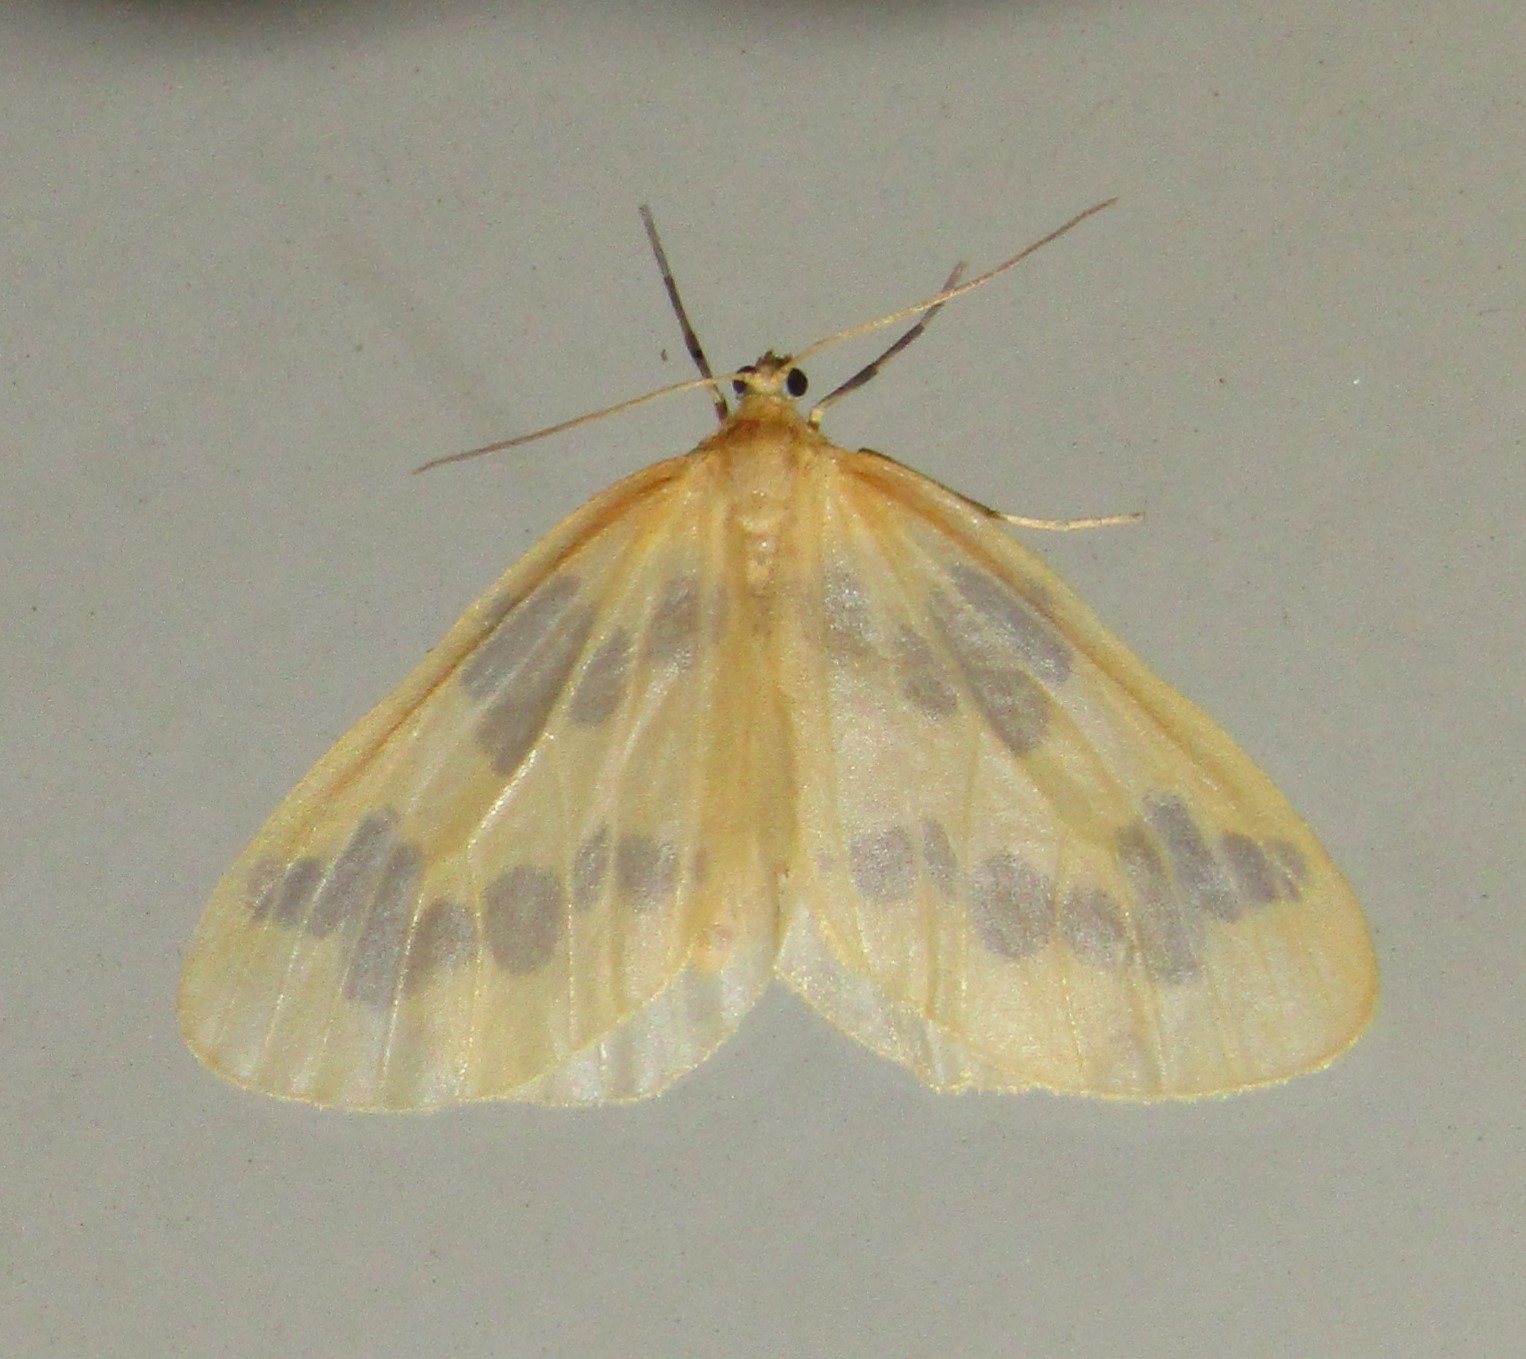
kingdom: Animalia
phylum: Arthropoda
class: Insecta
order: Lepidoptera
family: Geometridae
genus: Eubaphe
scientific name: Eubaphe mendica
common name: Beggar
